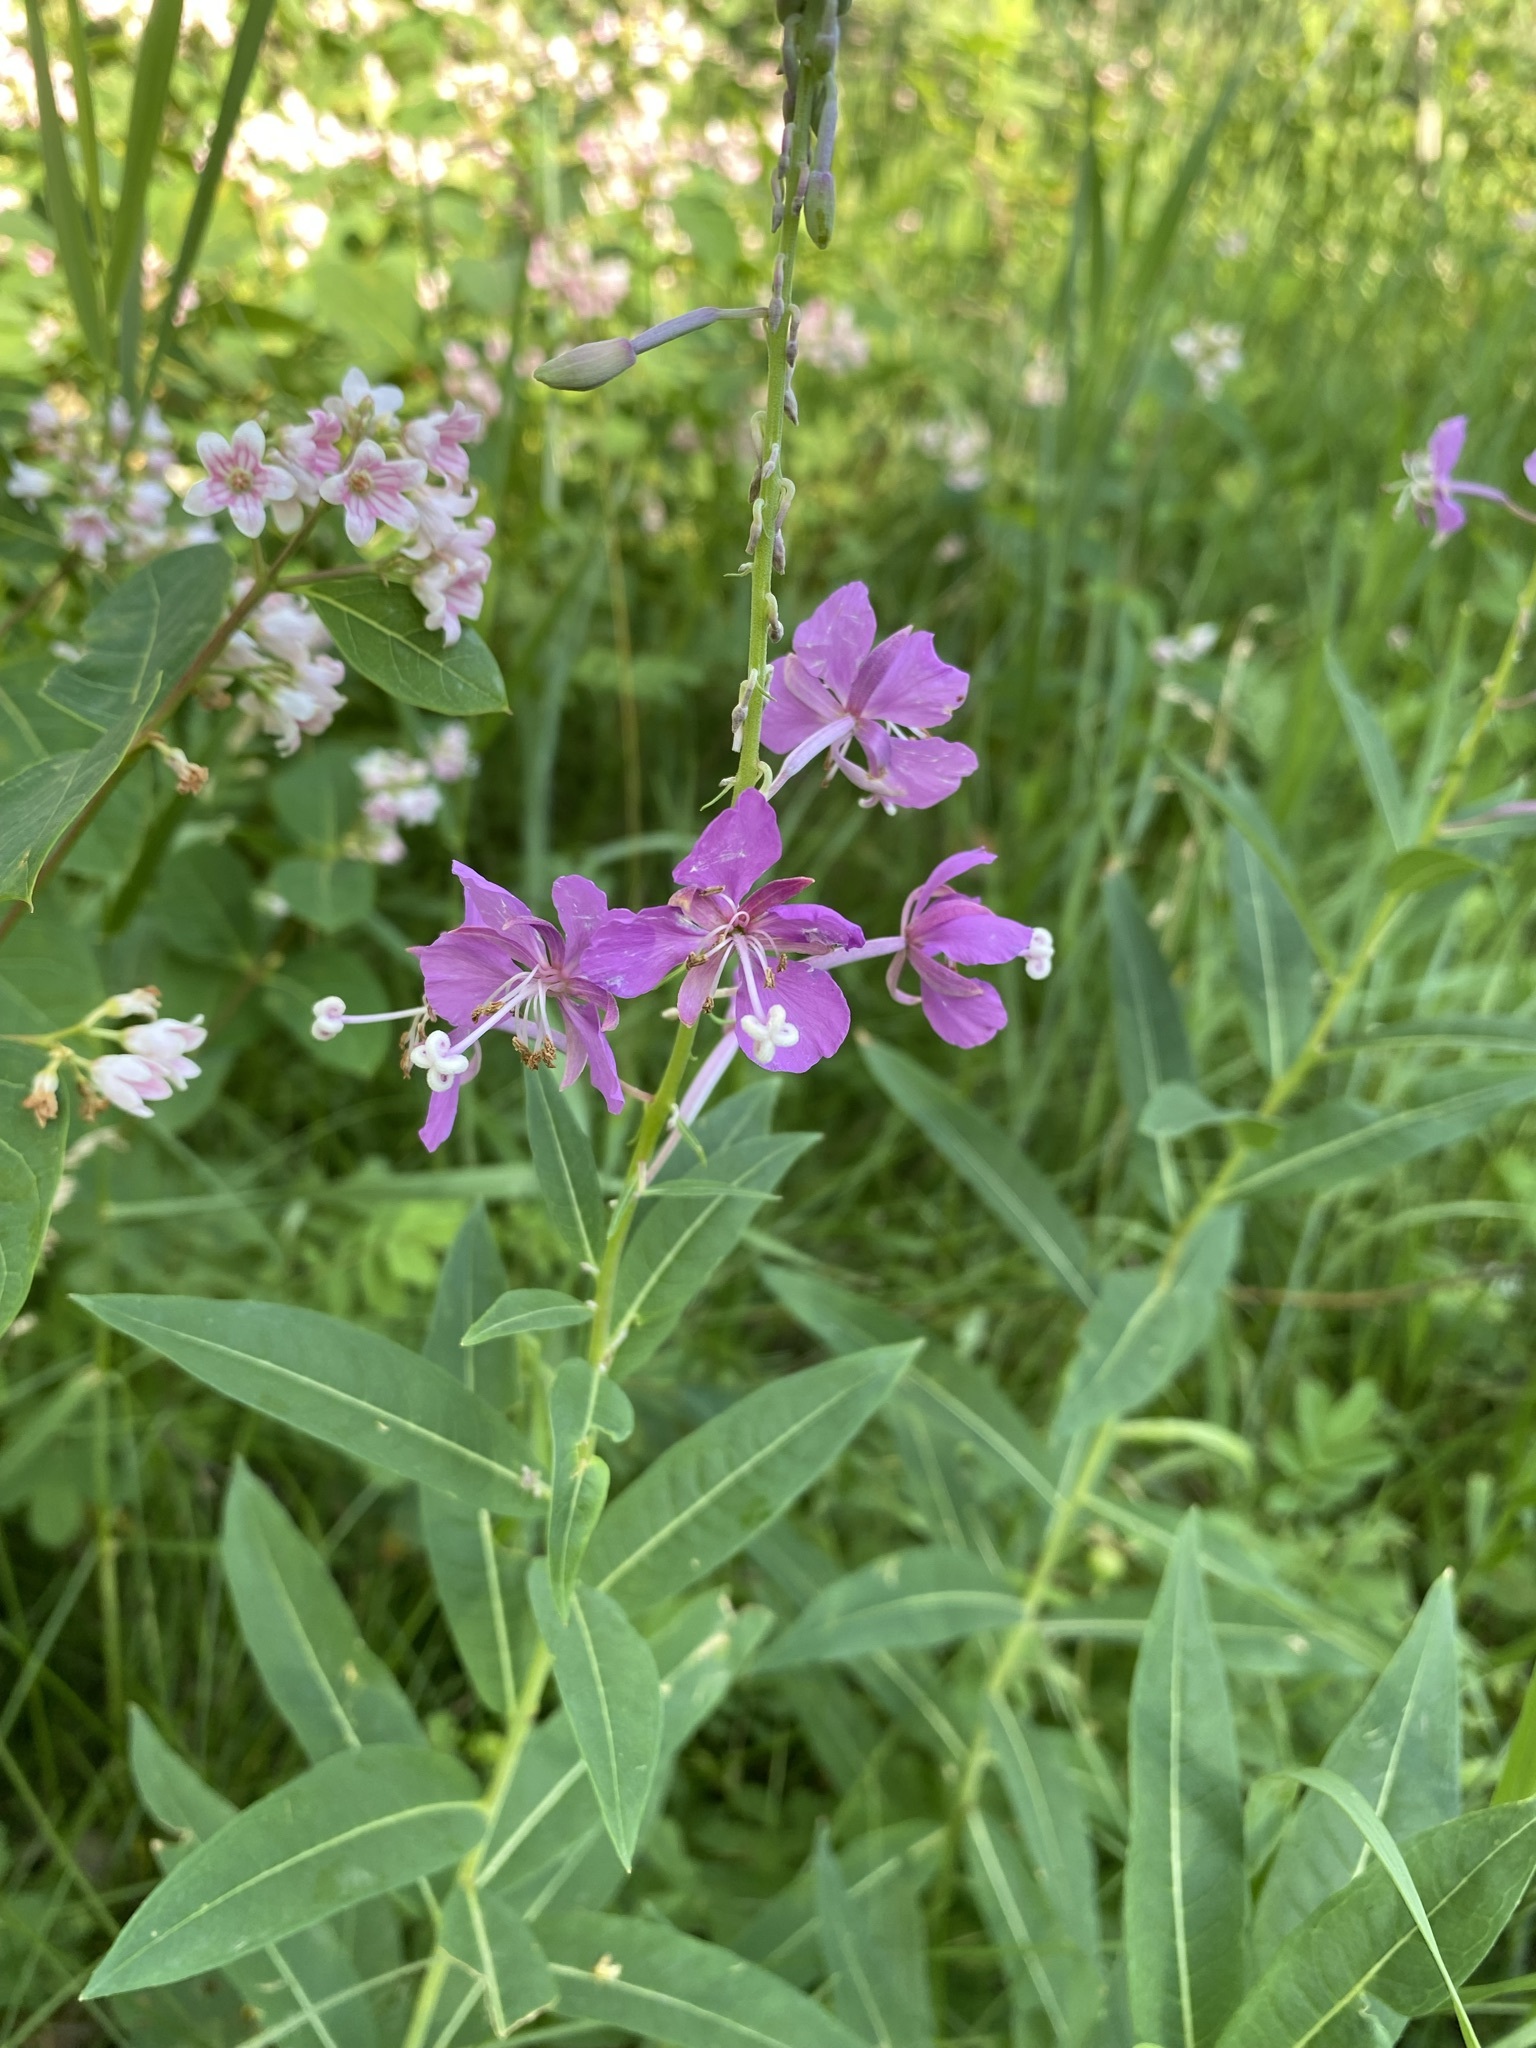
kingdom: Plantae
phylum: Tracheophyta
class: Magnoliopsida
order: Myrtales
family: Onagraceae
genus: Chamaenerion
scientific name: Chamaenerion angustifolium
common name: Fireweed
